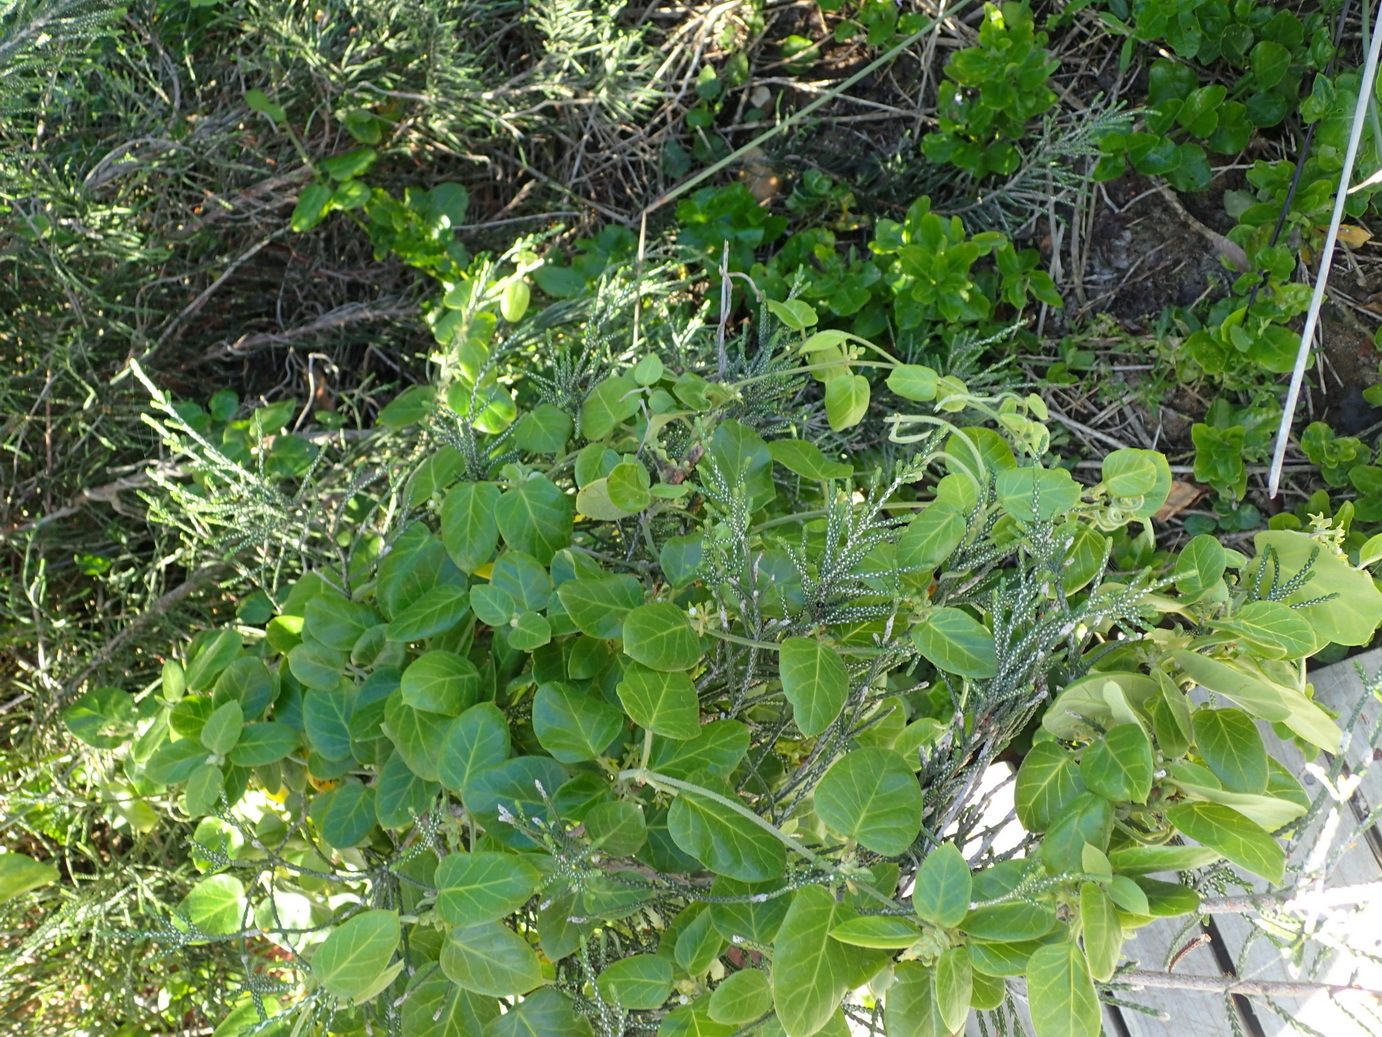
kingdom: Plantae
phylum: Tracheophyta
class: Magnoliopsida
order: Gentianales
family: Apocynaceae
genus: Cynanchum
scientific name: Cynanchum obtusifolium
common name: Monkey-rope
